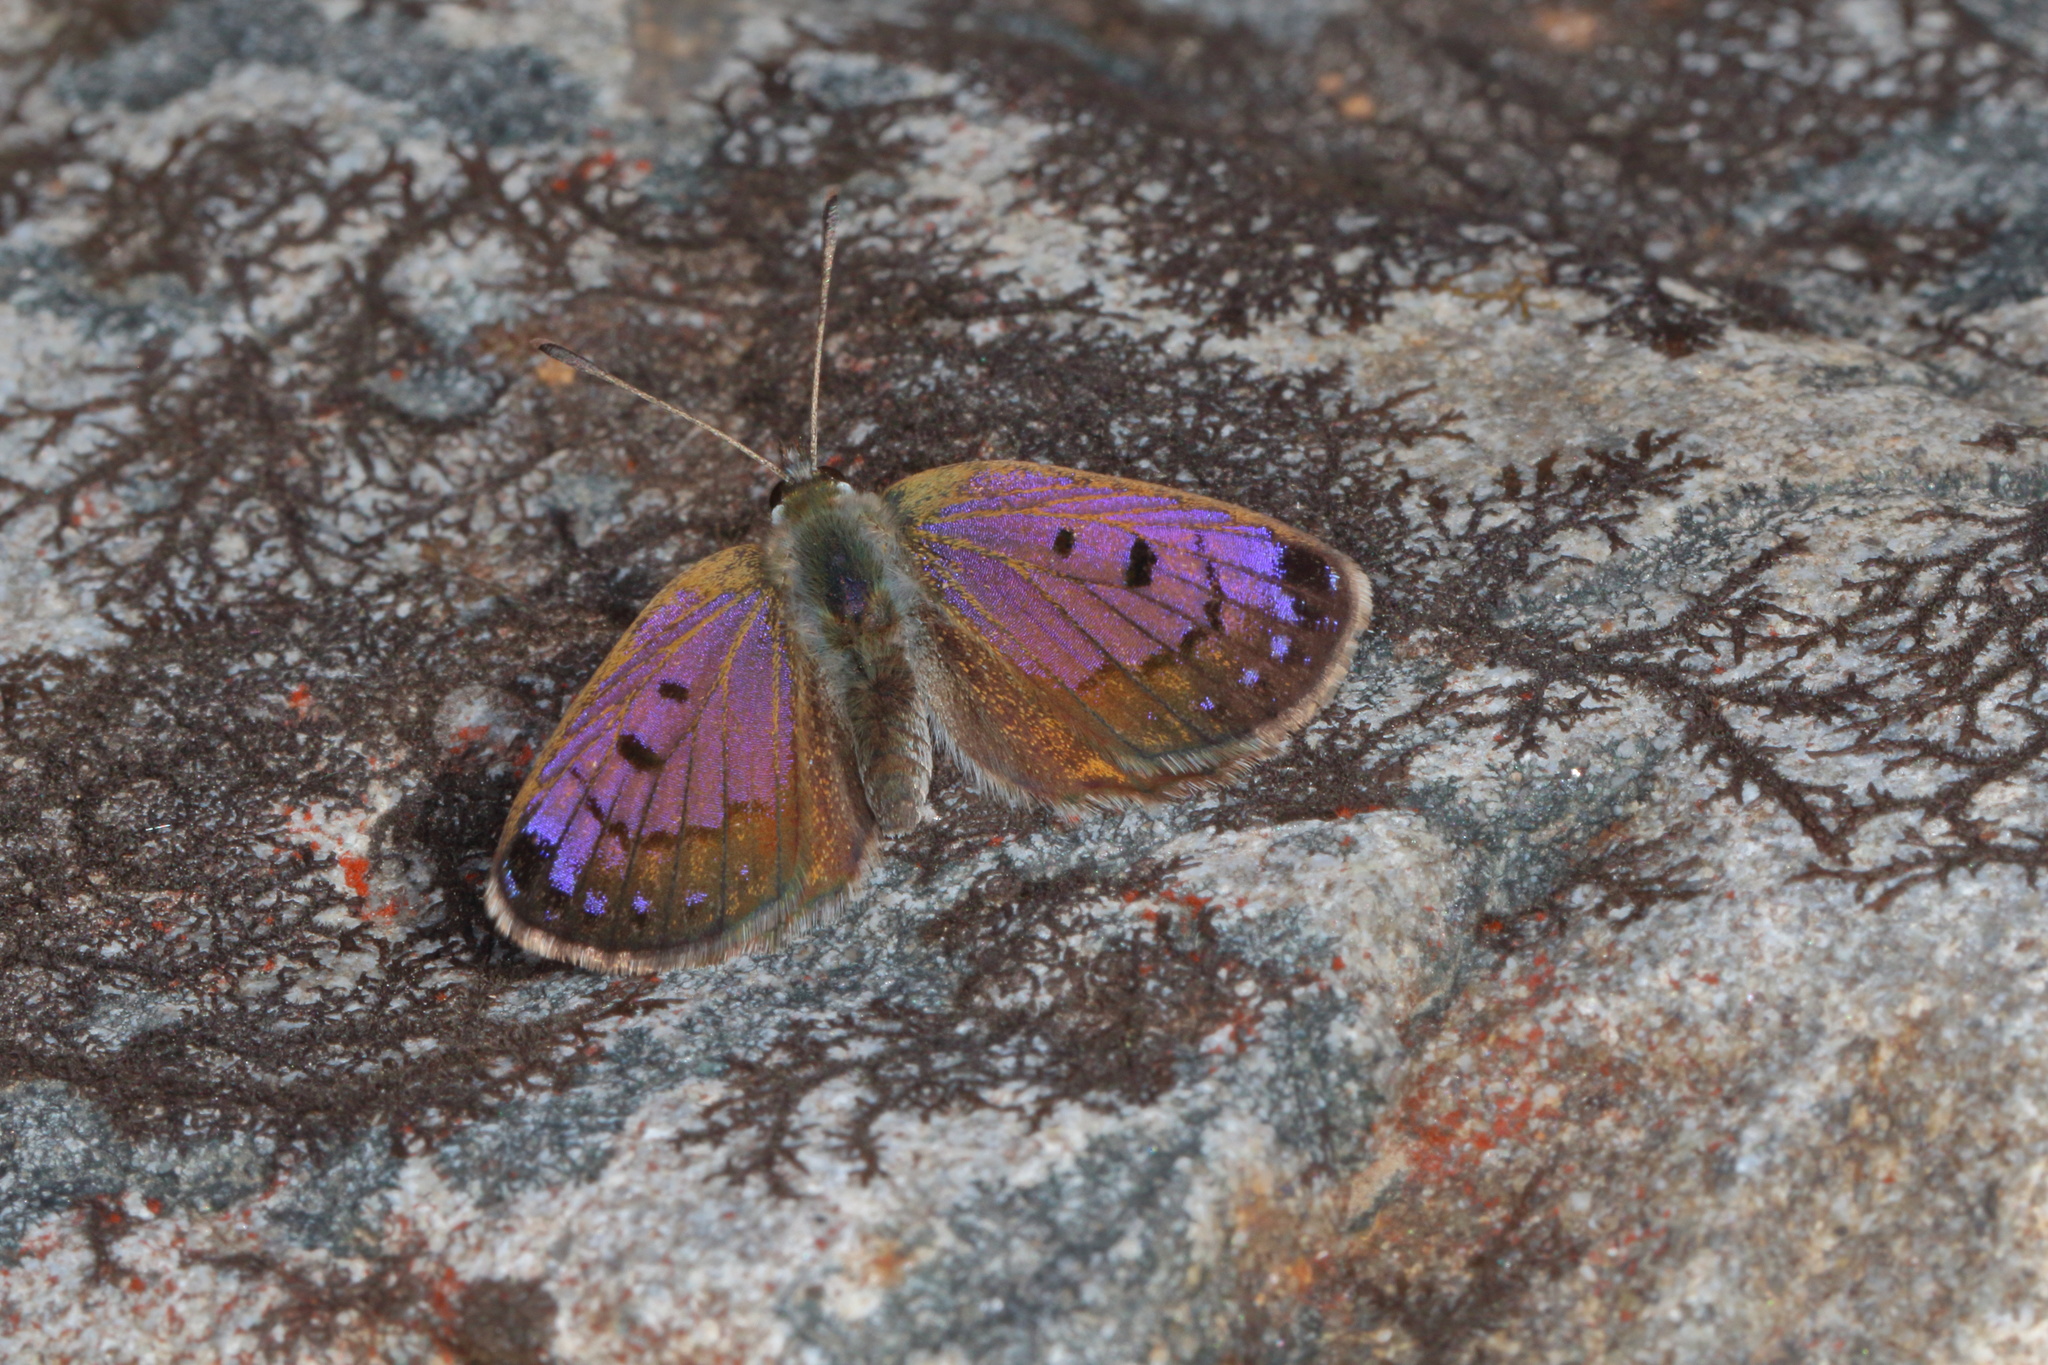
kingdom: Animalia
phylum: Arthropoda
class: Insecta
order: Lepidoptera
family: Lycaenidae
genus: Lycaena
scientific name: Lycaena tama
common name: Canterbury alpine boulder copper
